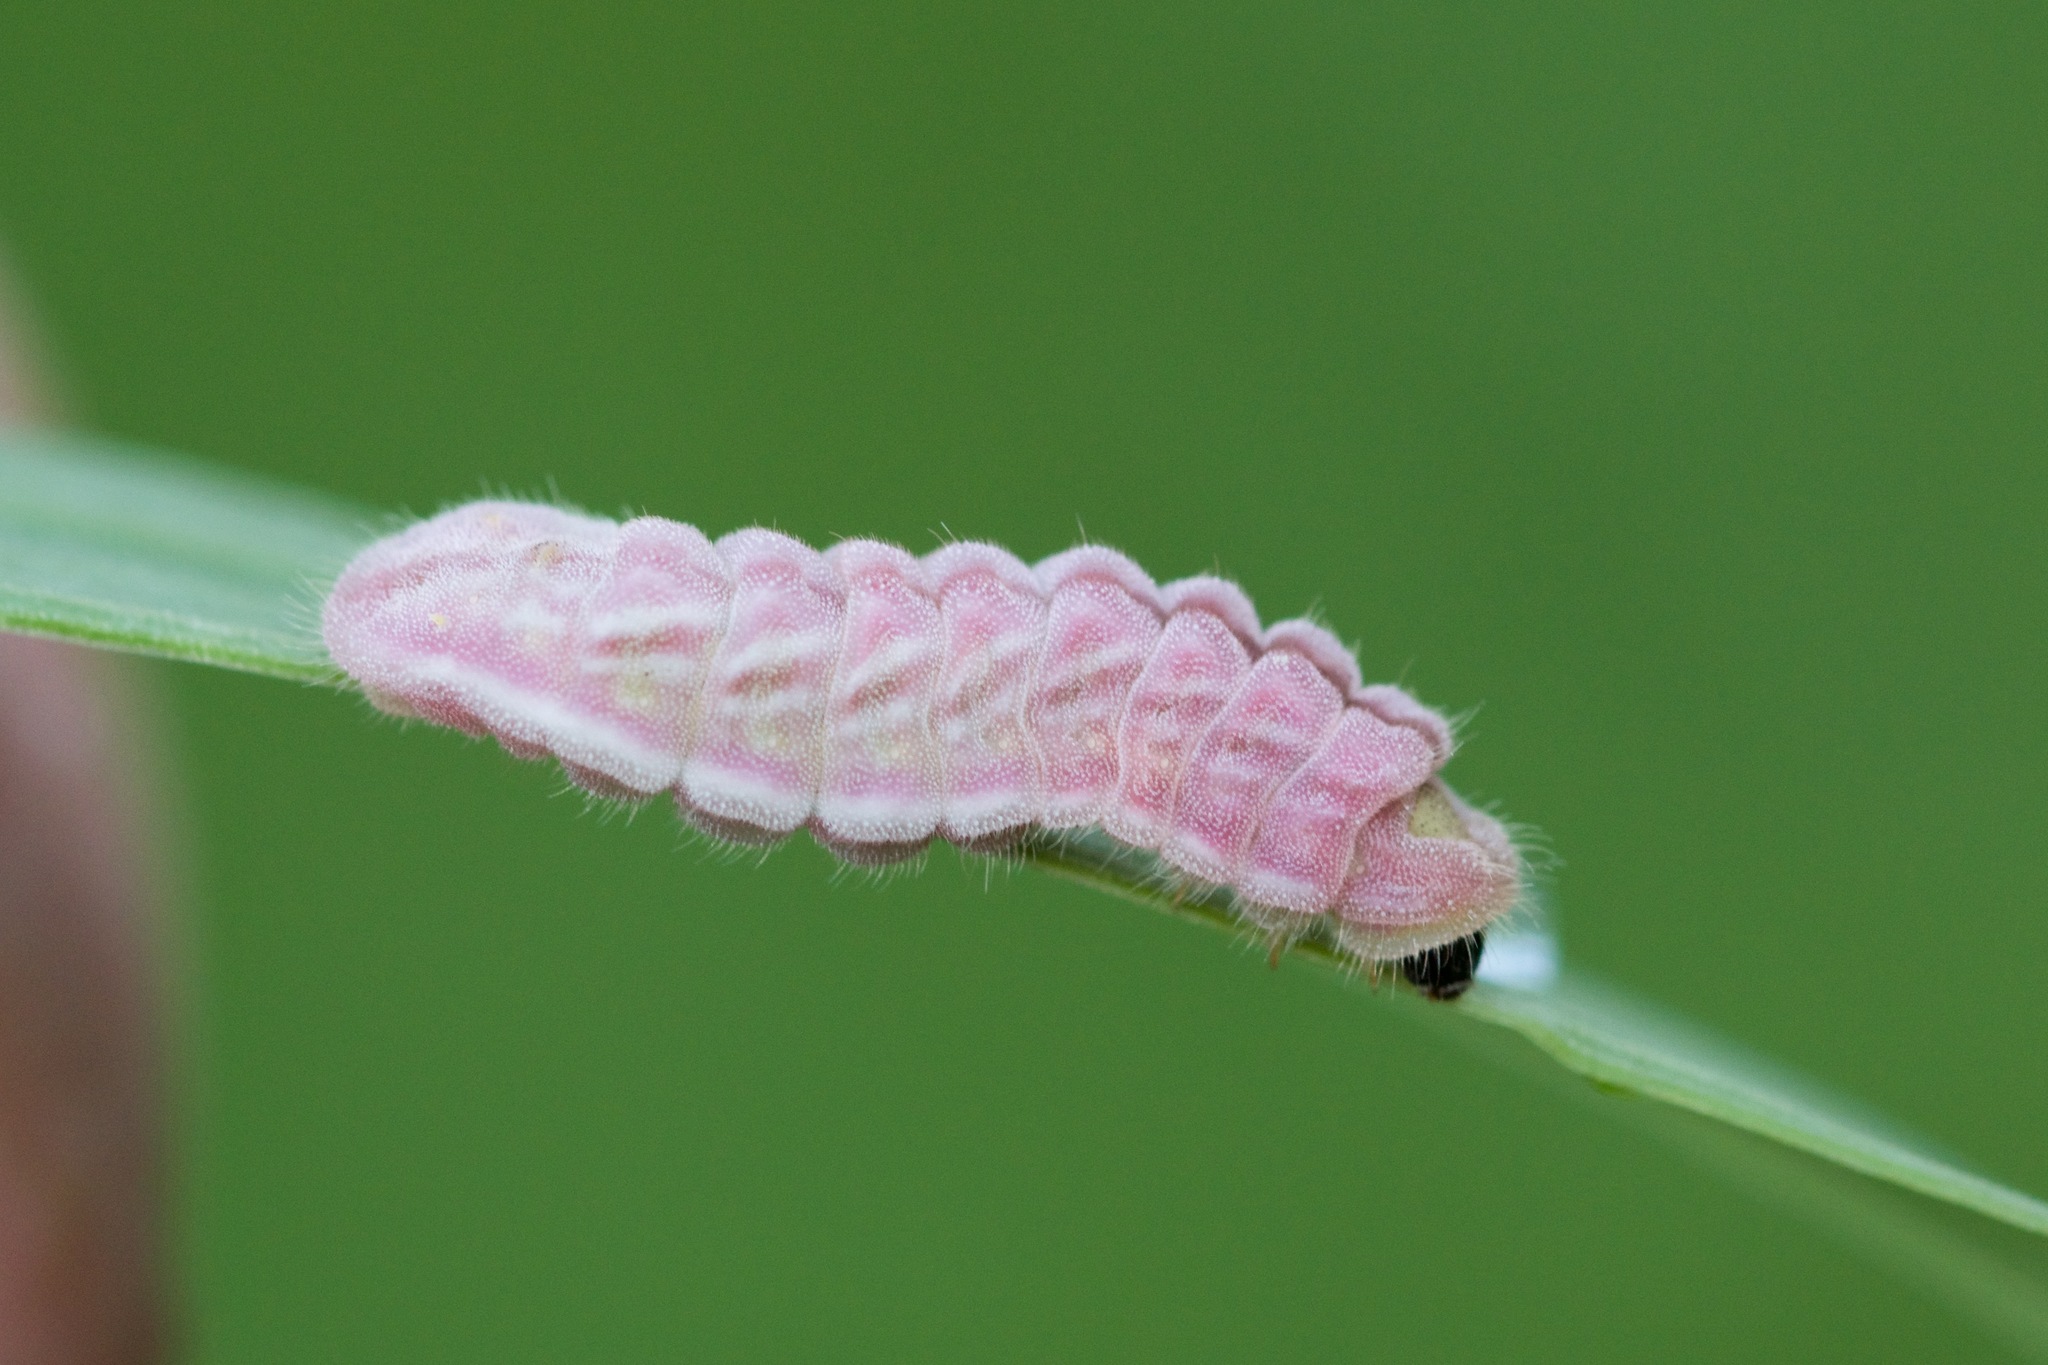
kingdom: Animalia
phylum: Arthropoda
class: Insecta
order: Lepidoptera
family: Lycaenidae
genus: Glaucopsyche
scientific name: Glaucopsyche lygdamus
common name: Silvery blue
